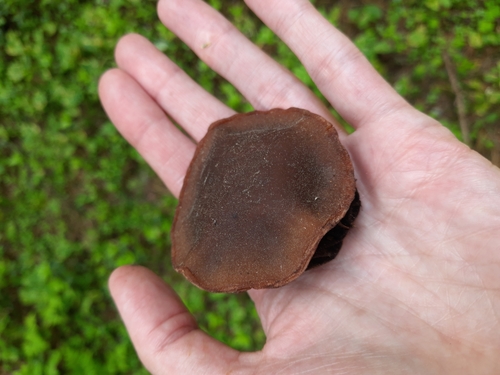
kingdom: Fungi
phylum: Ascomycota
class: Pezizomycetes
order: Pezizales
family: Sarcosomataceae
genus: Sarcosoma
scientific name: Sarcosoma globosum
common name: Charred-pancake cup
